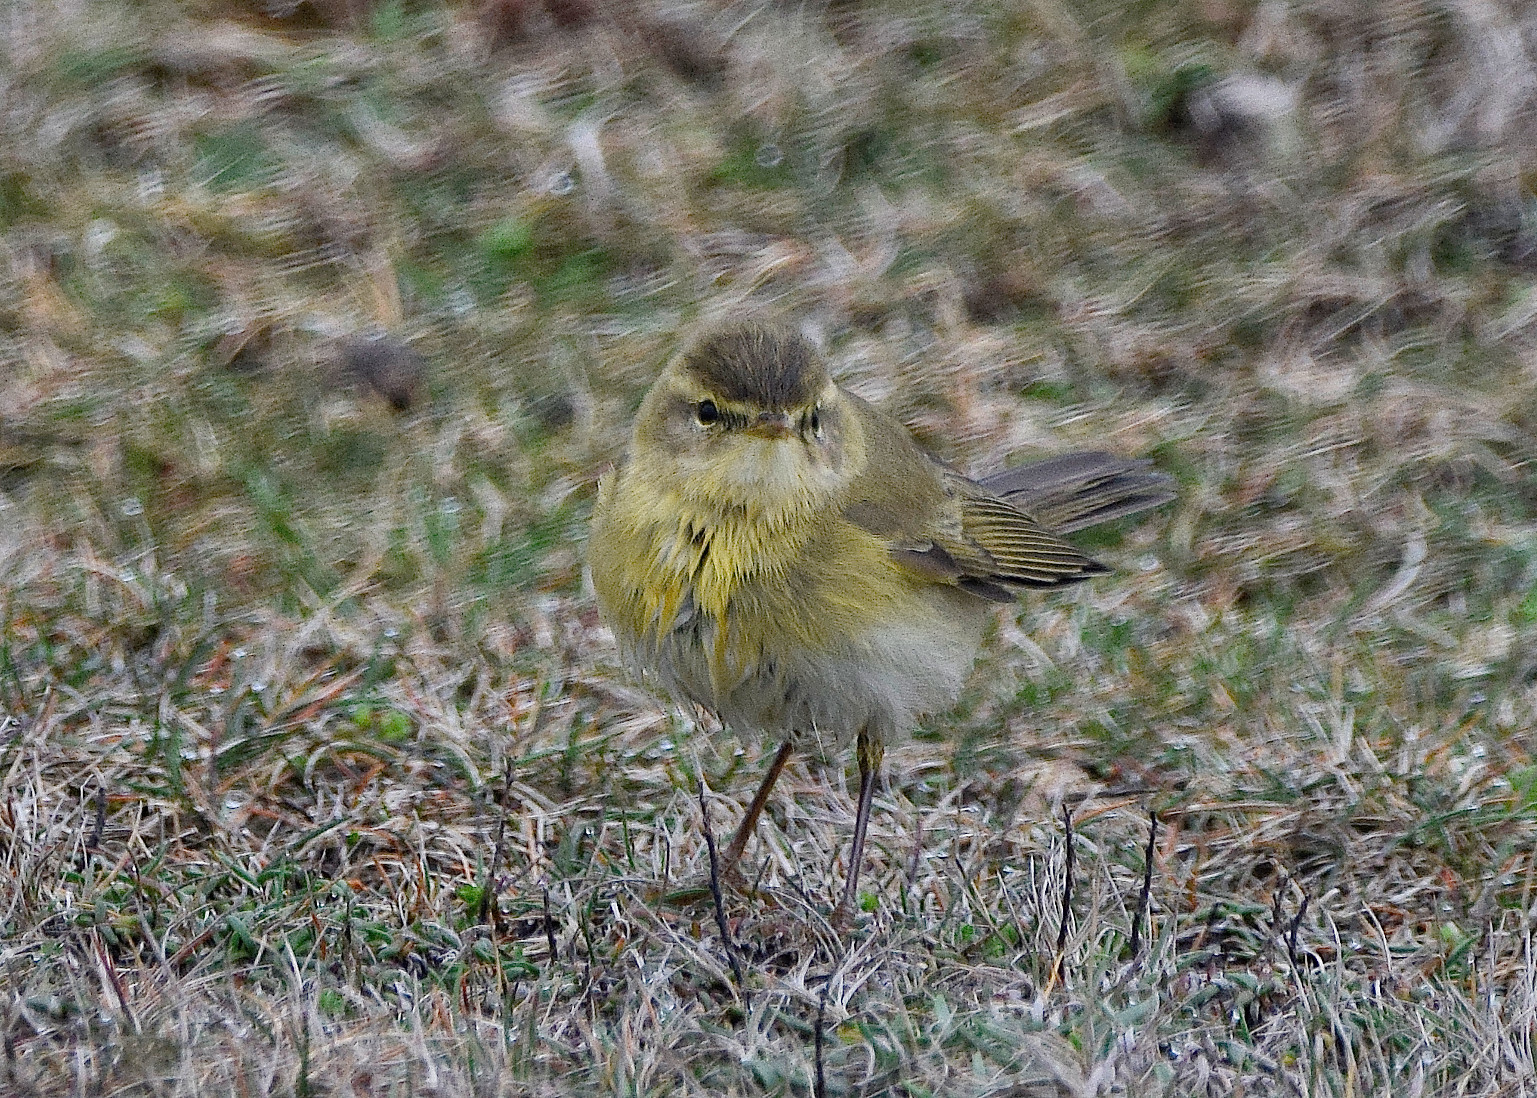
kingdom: Animalia
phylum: Chordata
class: Aves
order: Passeriformes
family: Phylloscopidae
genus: Phylloscopus
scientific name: Phylloscopus trochilus
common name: Willow warbler
